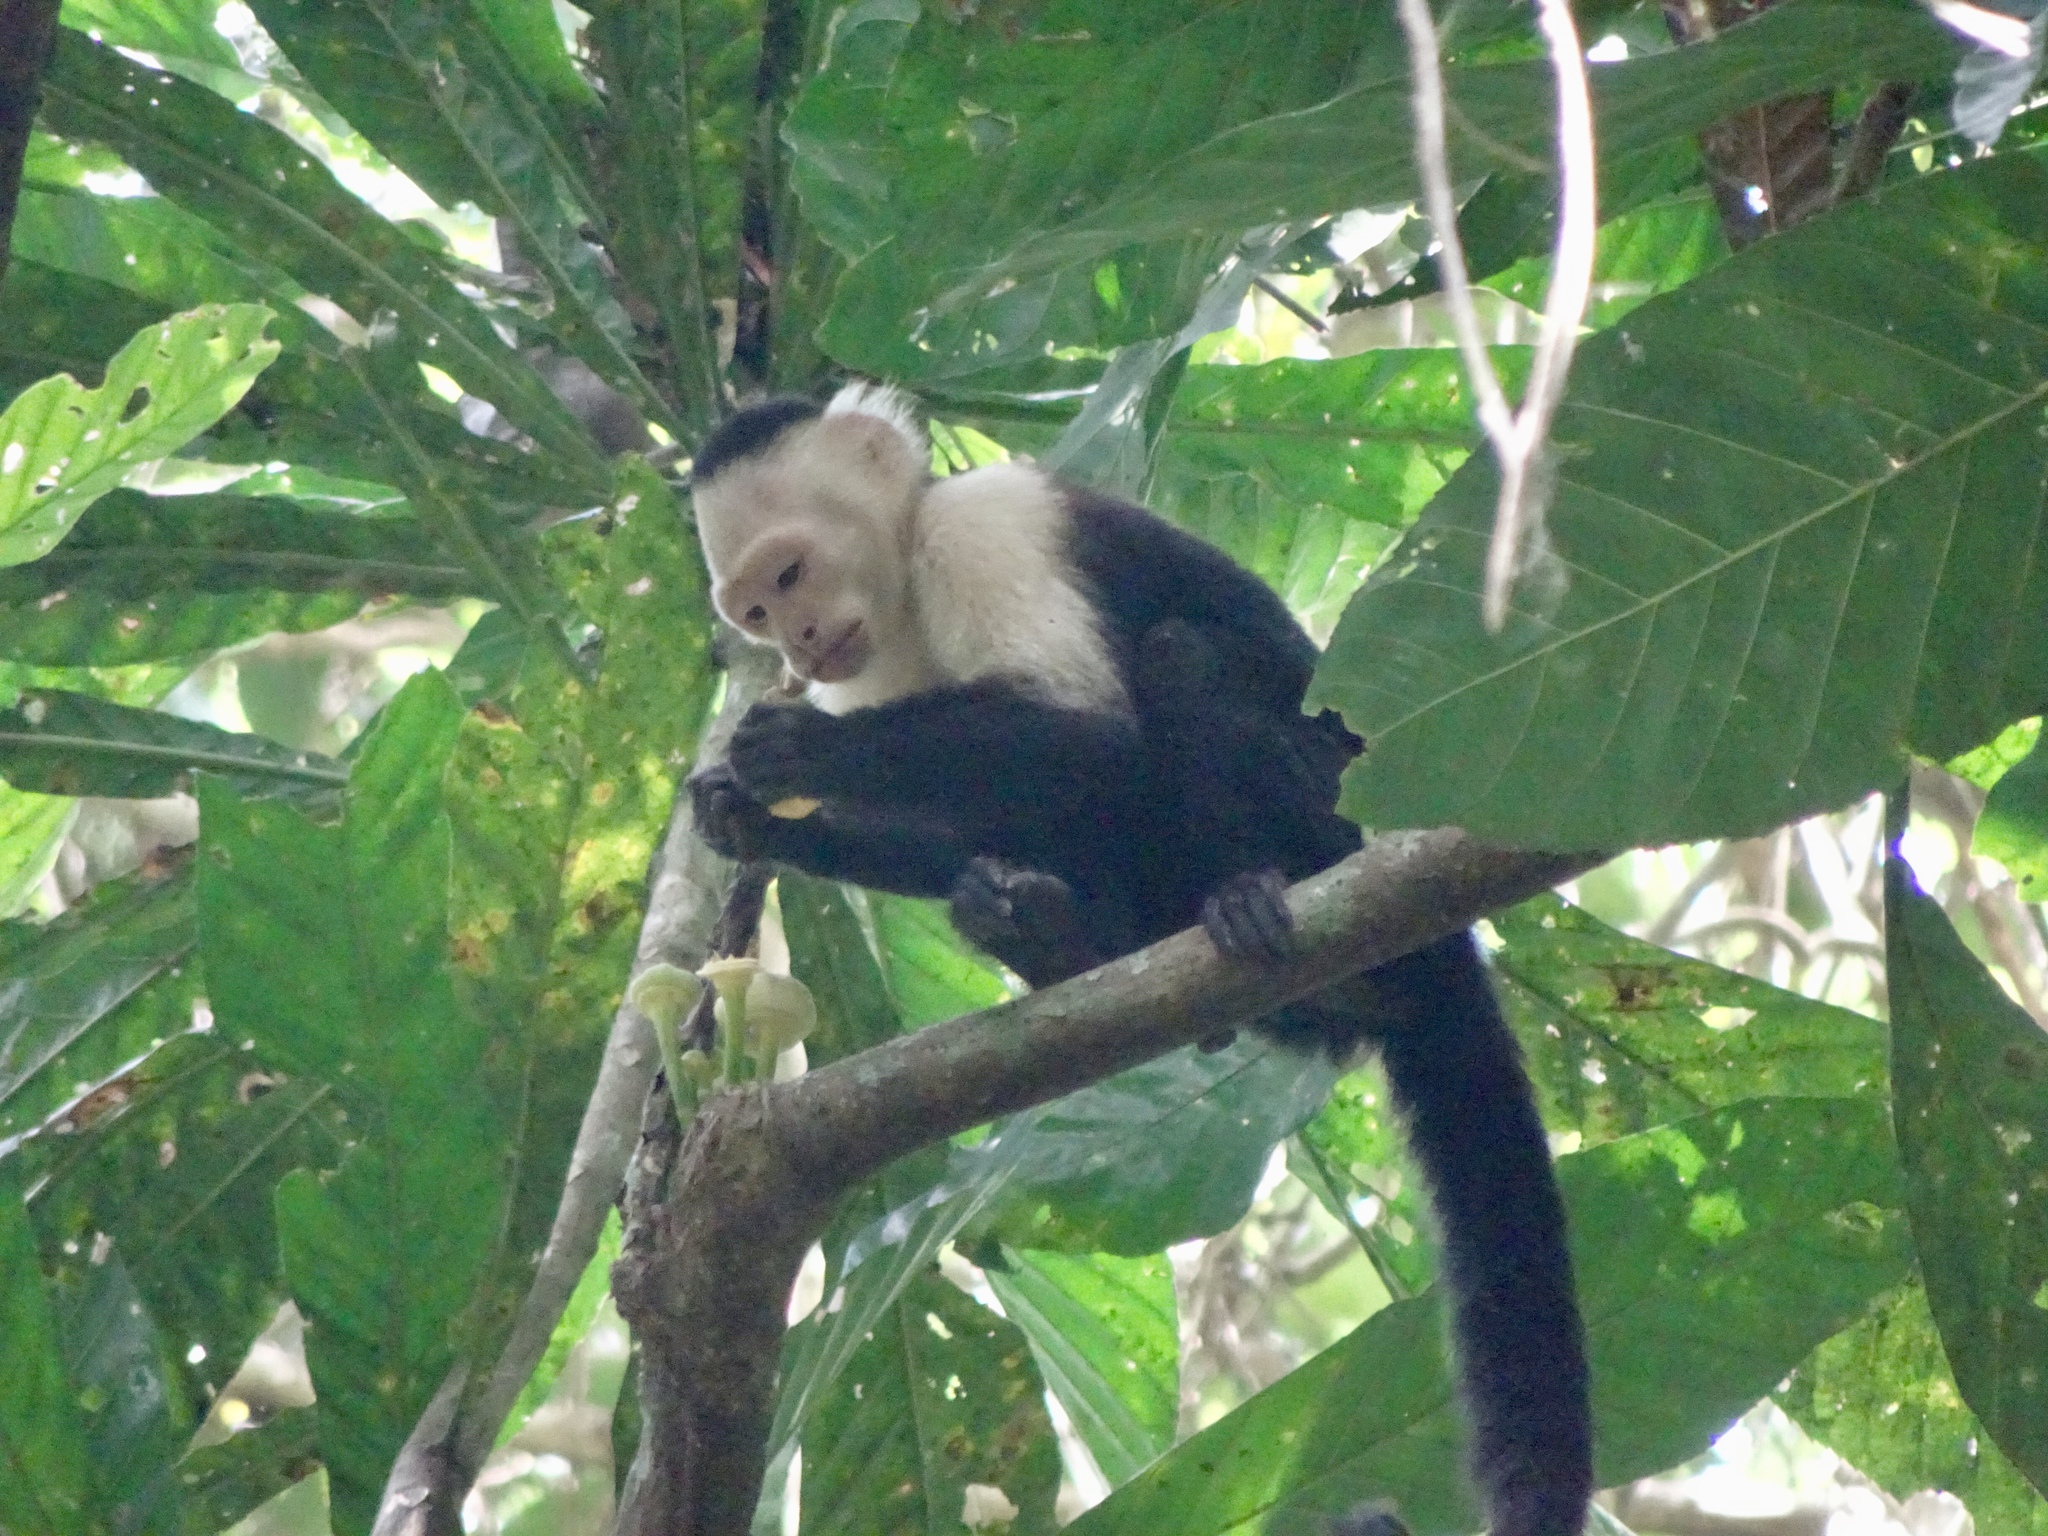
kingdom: Animalia
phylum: Chordata
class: Mammalia
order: Primates
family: Cebidae
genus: Cebus
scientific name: Cebus imitator
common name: Panamanian white-faced capuchin
